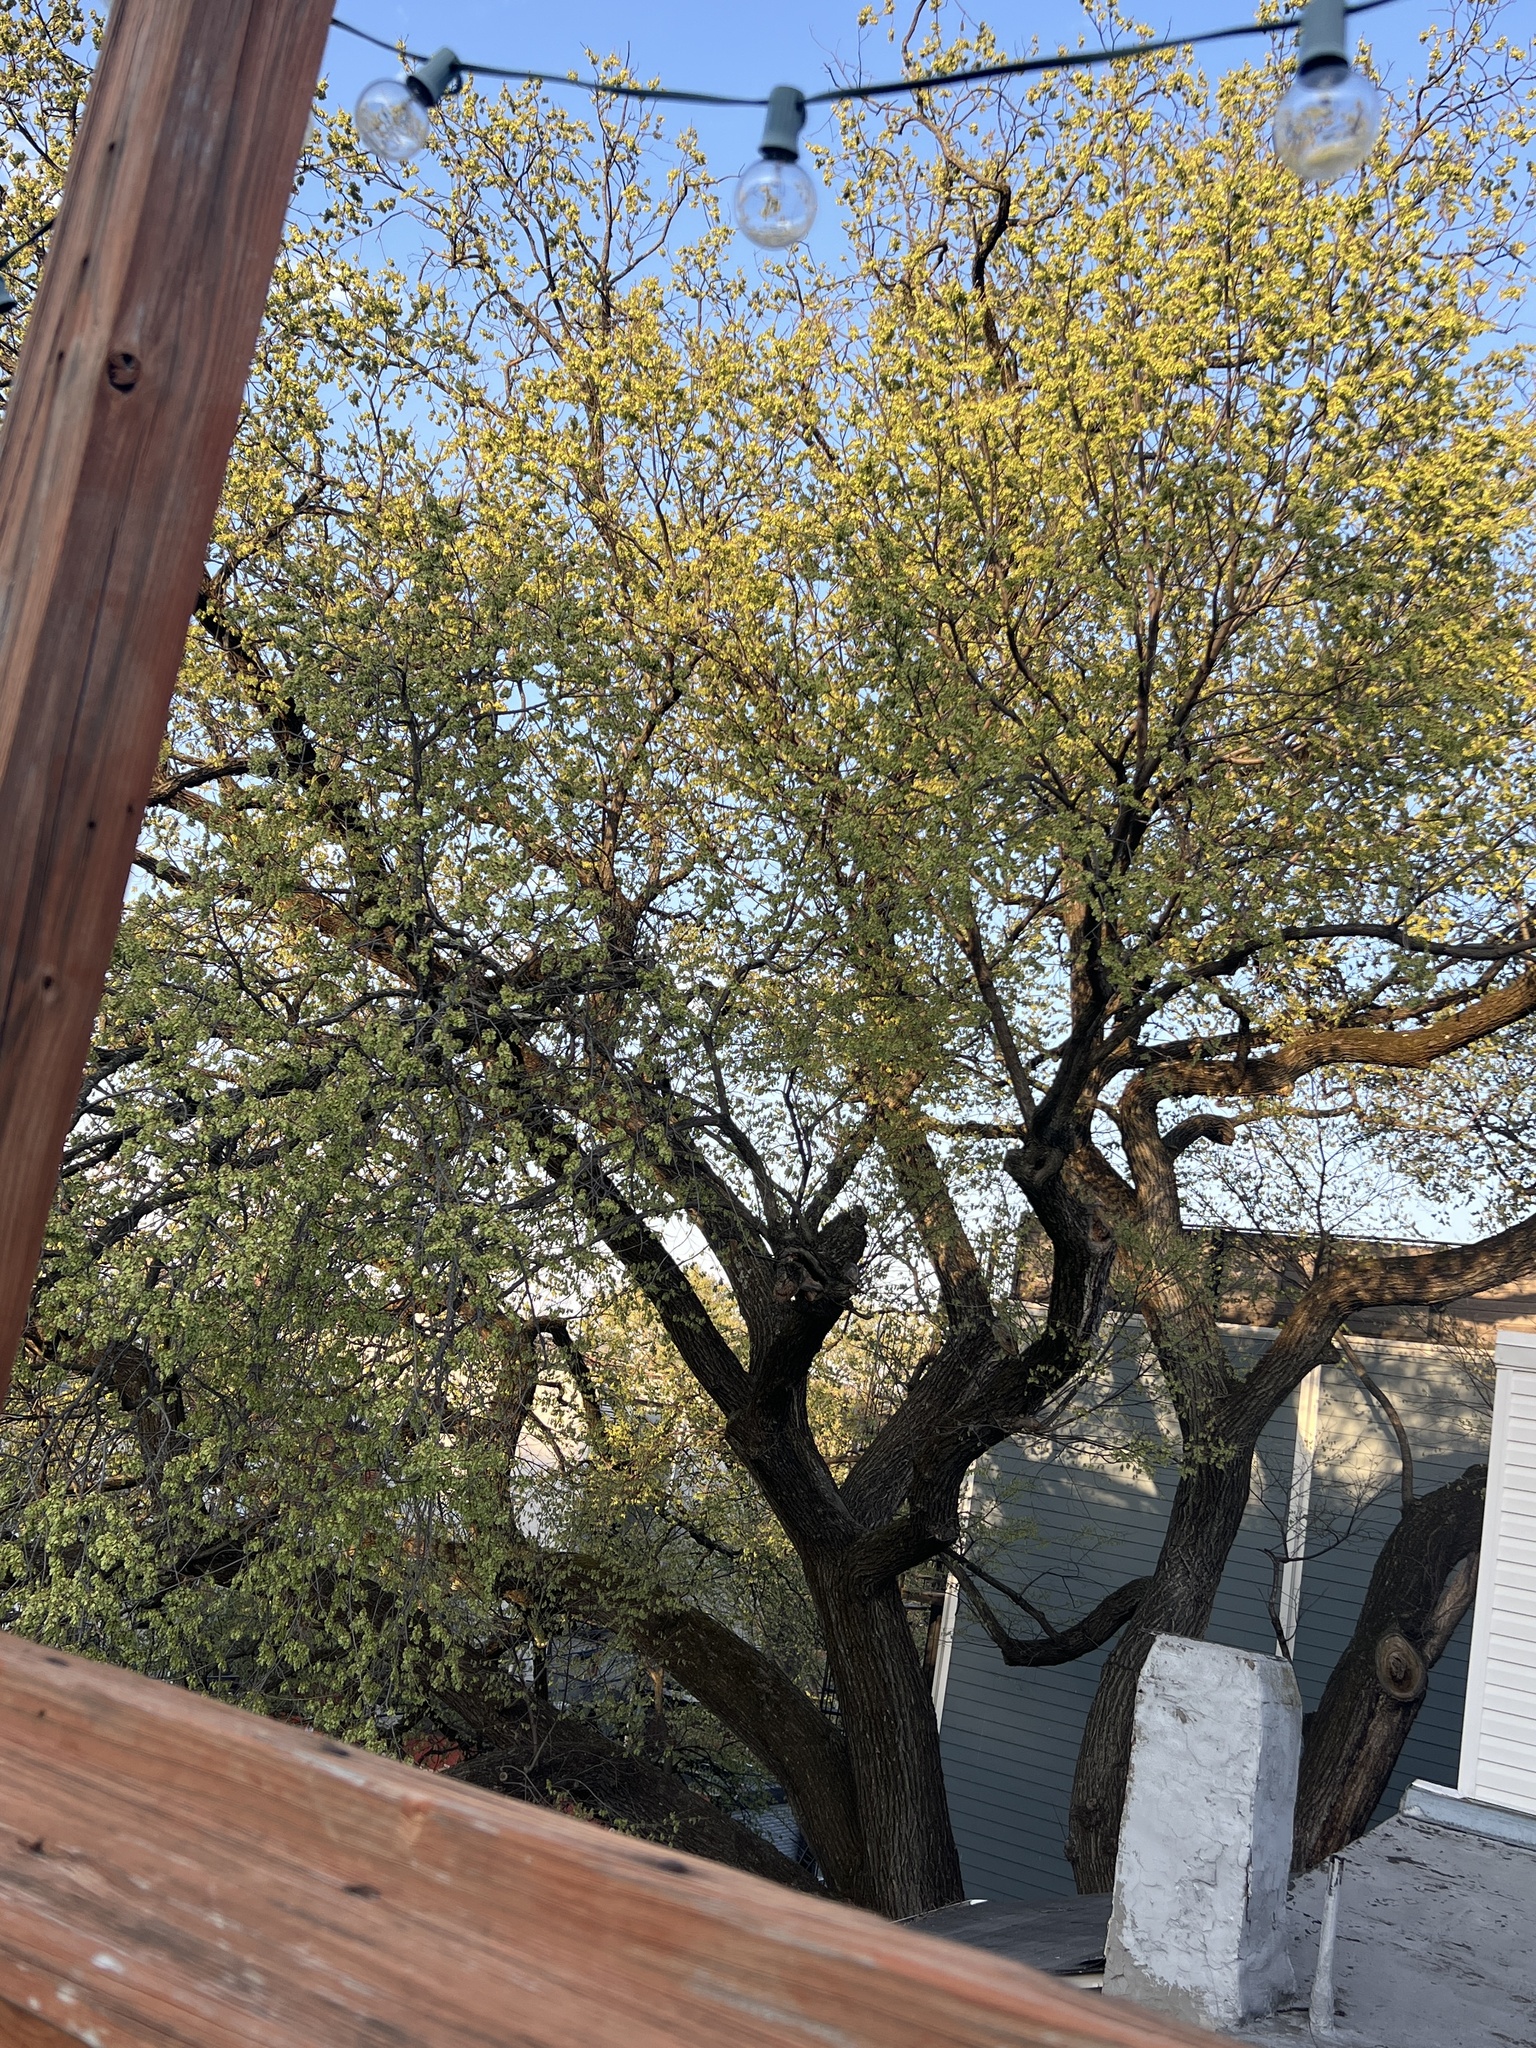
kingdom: Plantae
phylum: Tracheophyta
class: Magnoliopsida
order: Rosales
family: Ulmaceae
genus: Ulmus
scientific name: Ulmus americana
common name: American elm
